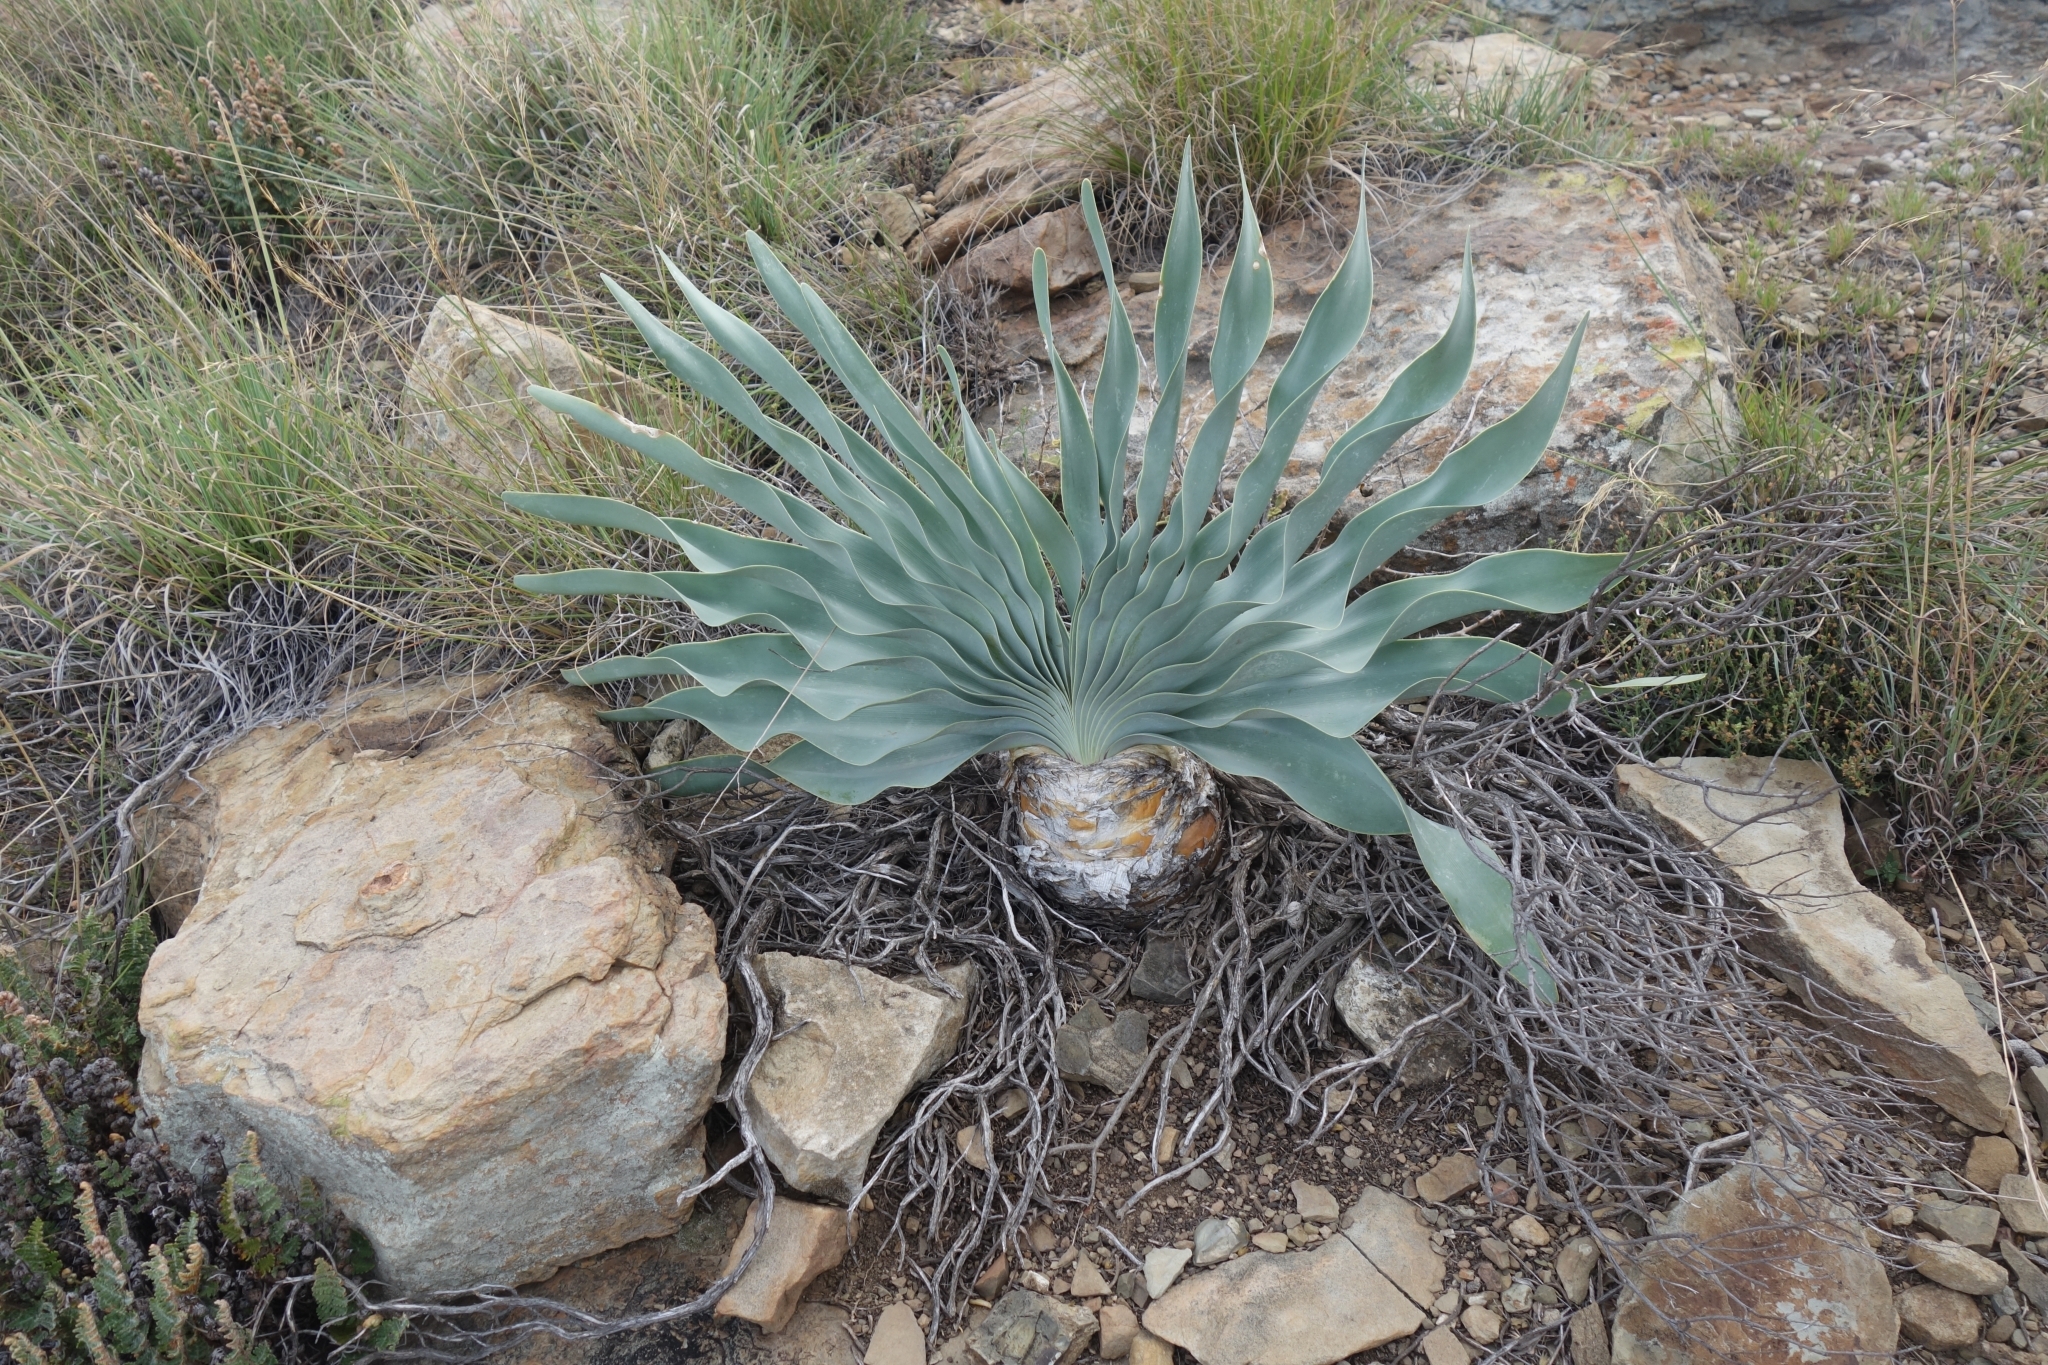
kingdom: Plantae
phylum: Tracheophyta
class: Liliopsida
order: Asparagales
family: Amaryllidaceae
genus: Boophone
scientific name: Boophone disticha
